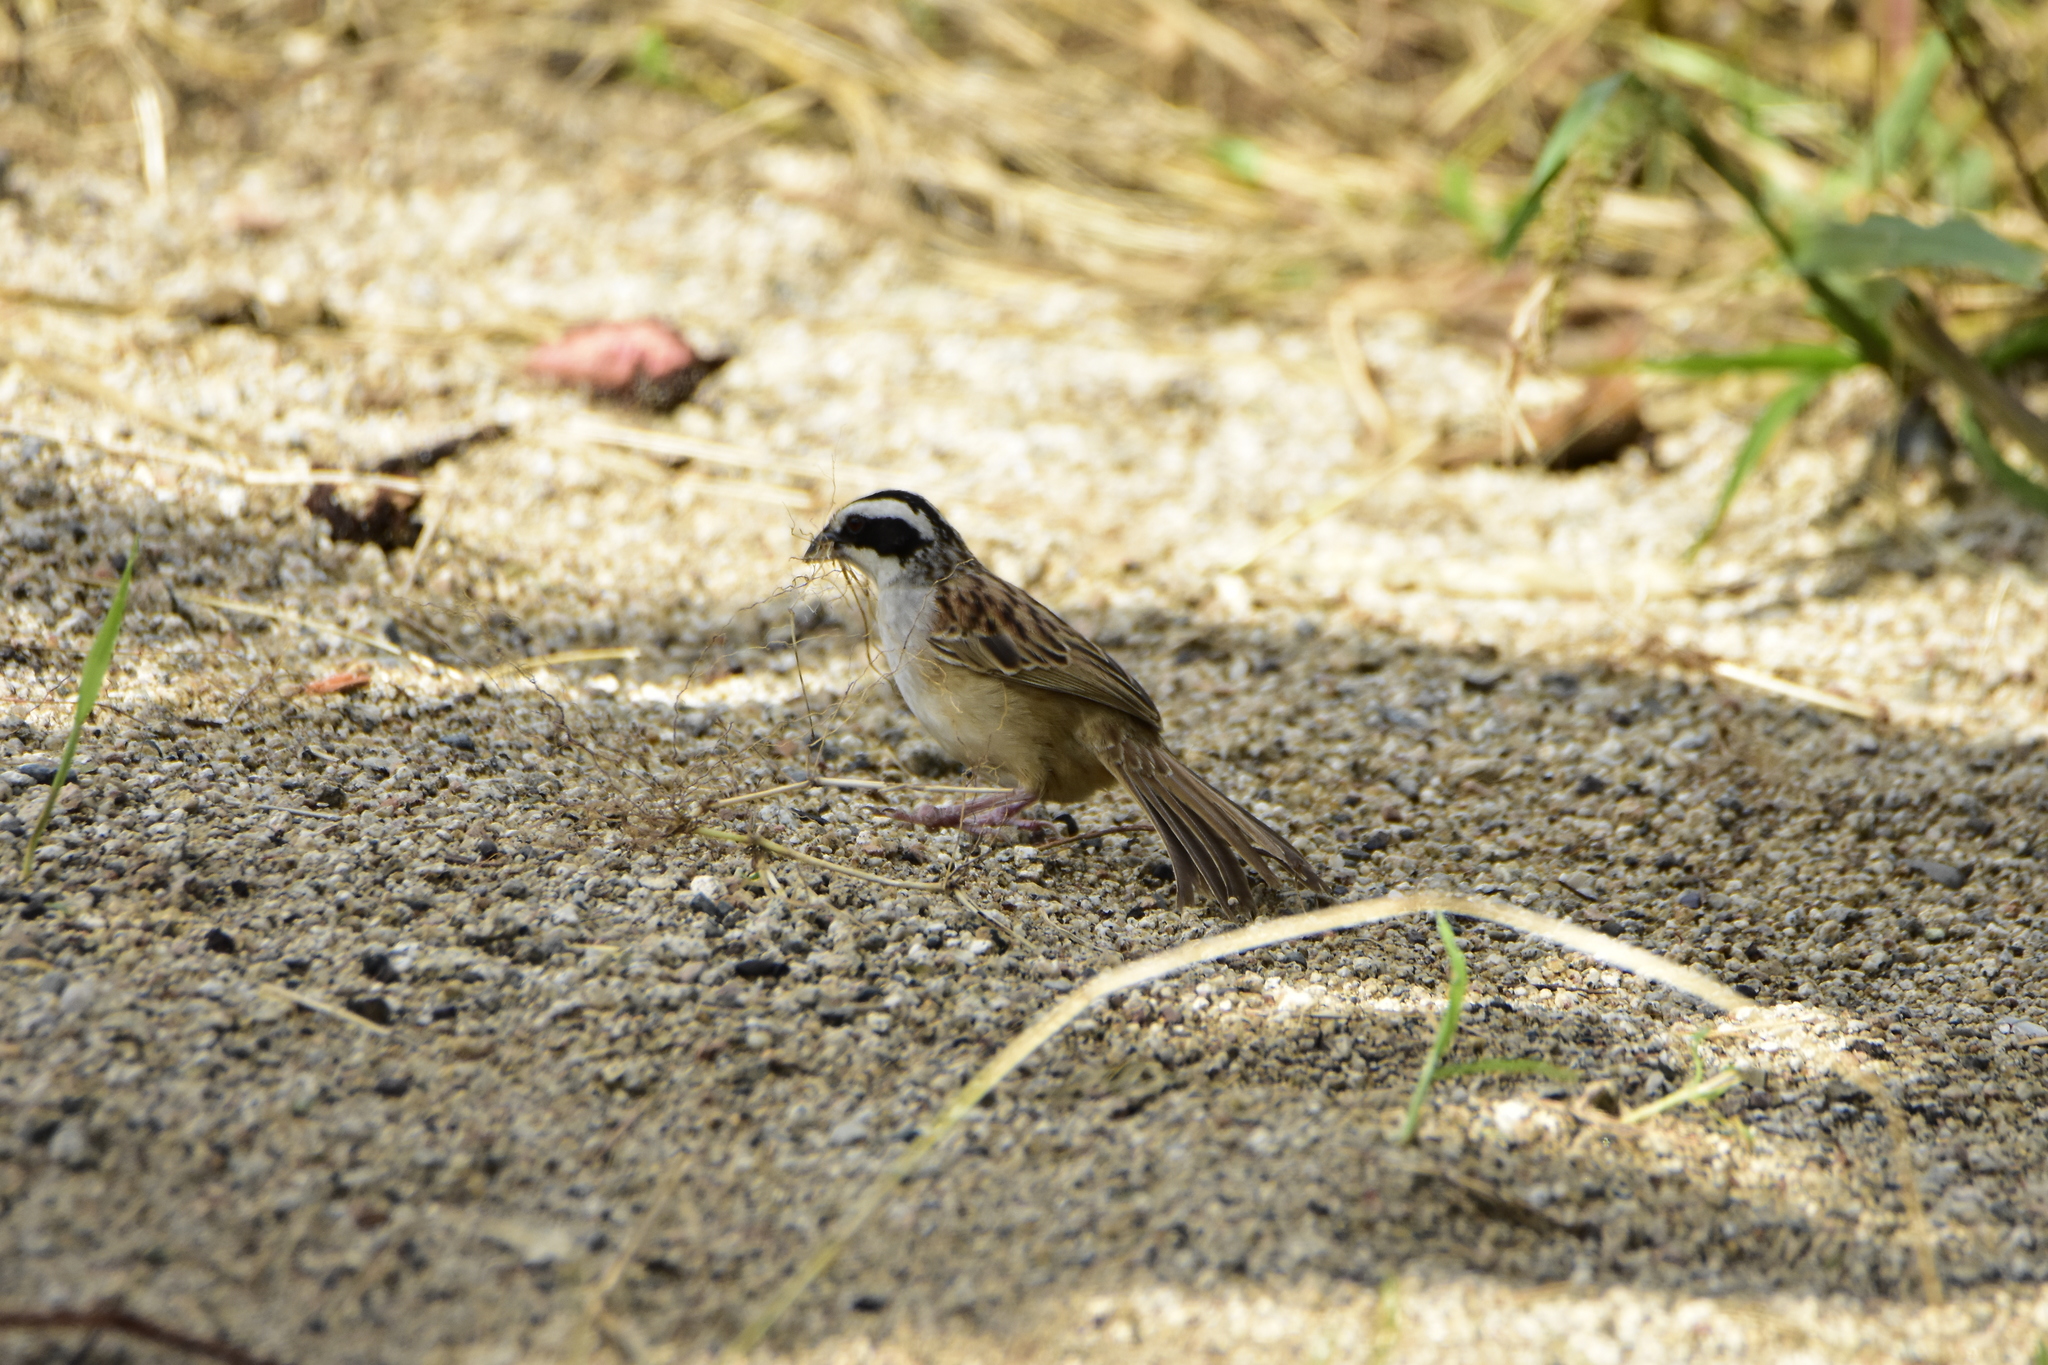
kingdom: Animalia
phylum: Chordata
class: Aves
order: Passeriformes
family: Passerellidae
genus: Peucaea
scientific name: Peucaea ruficauda
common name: Stripe-headed sparrow
